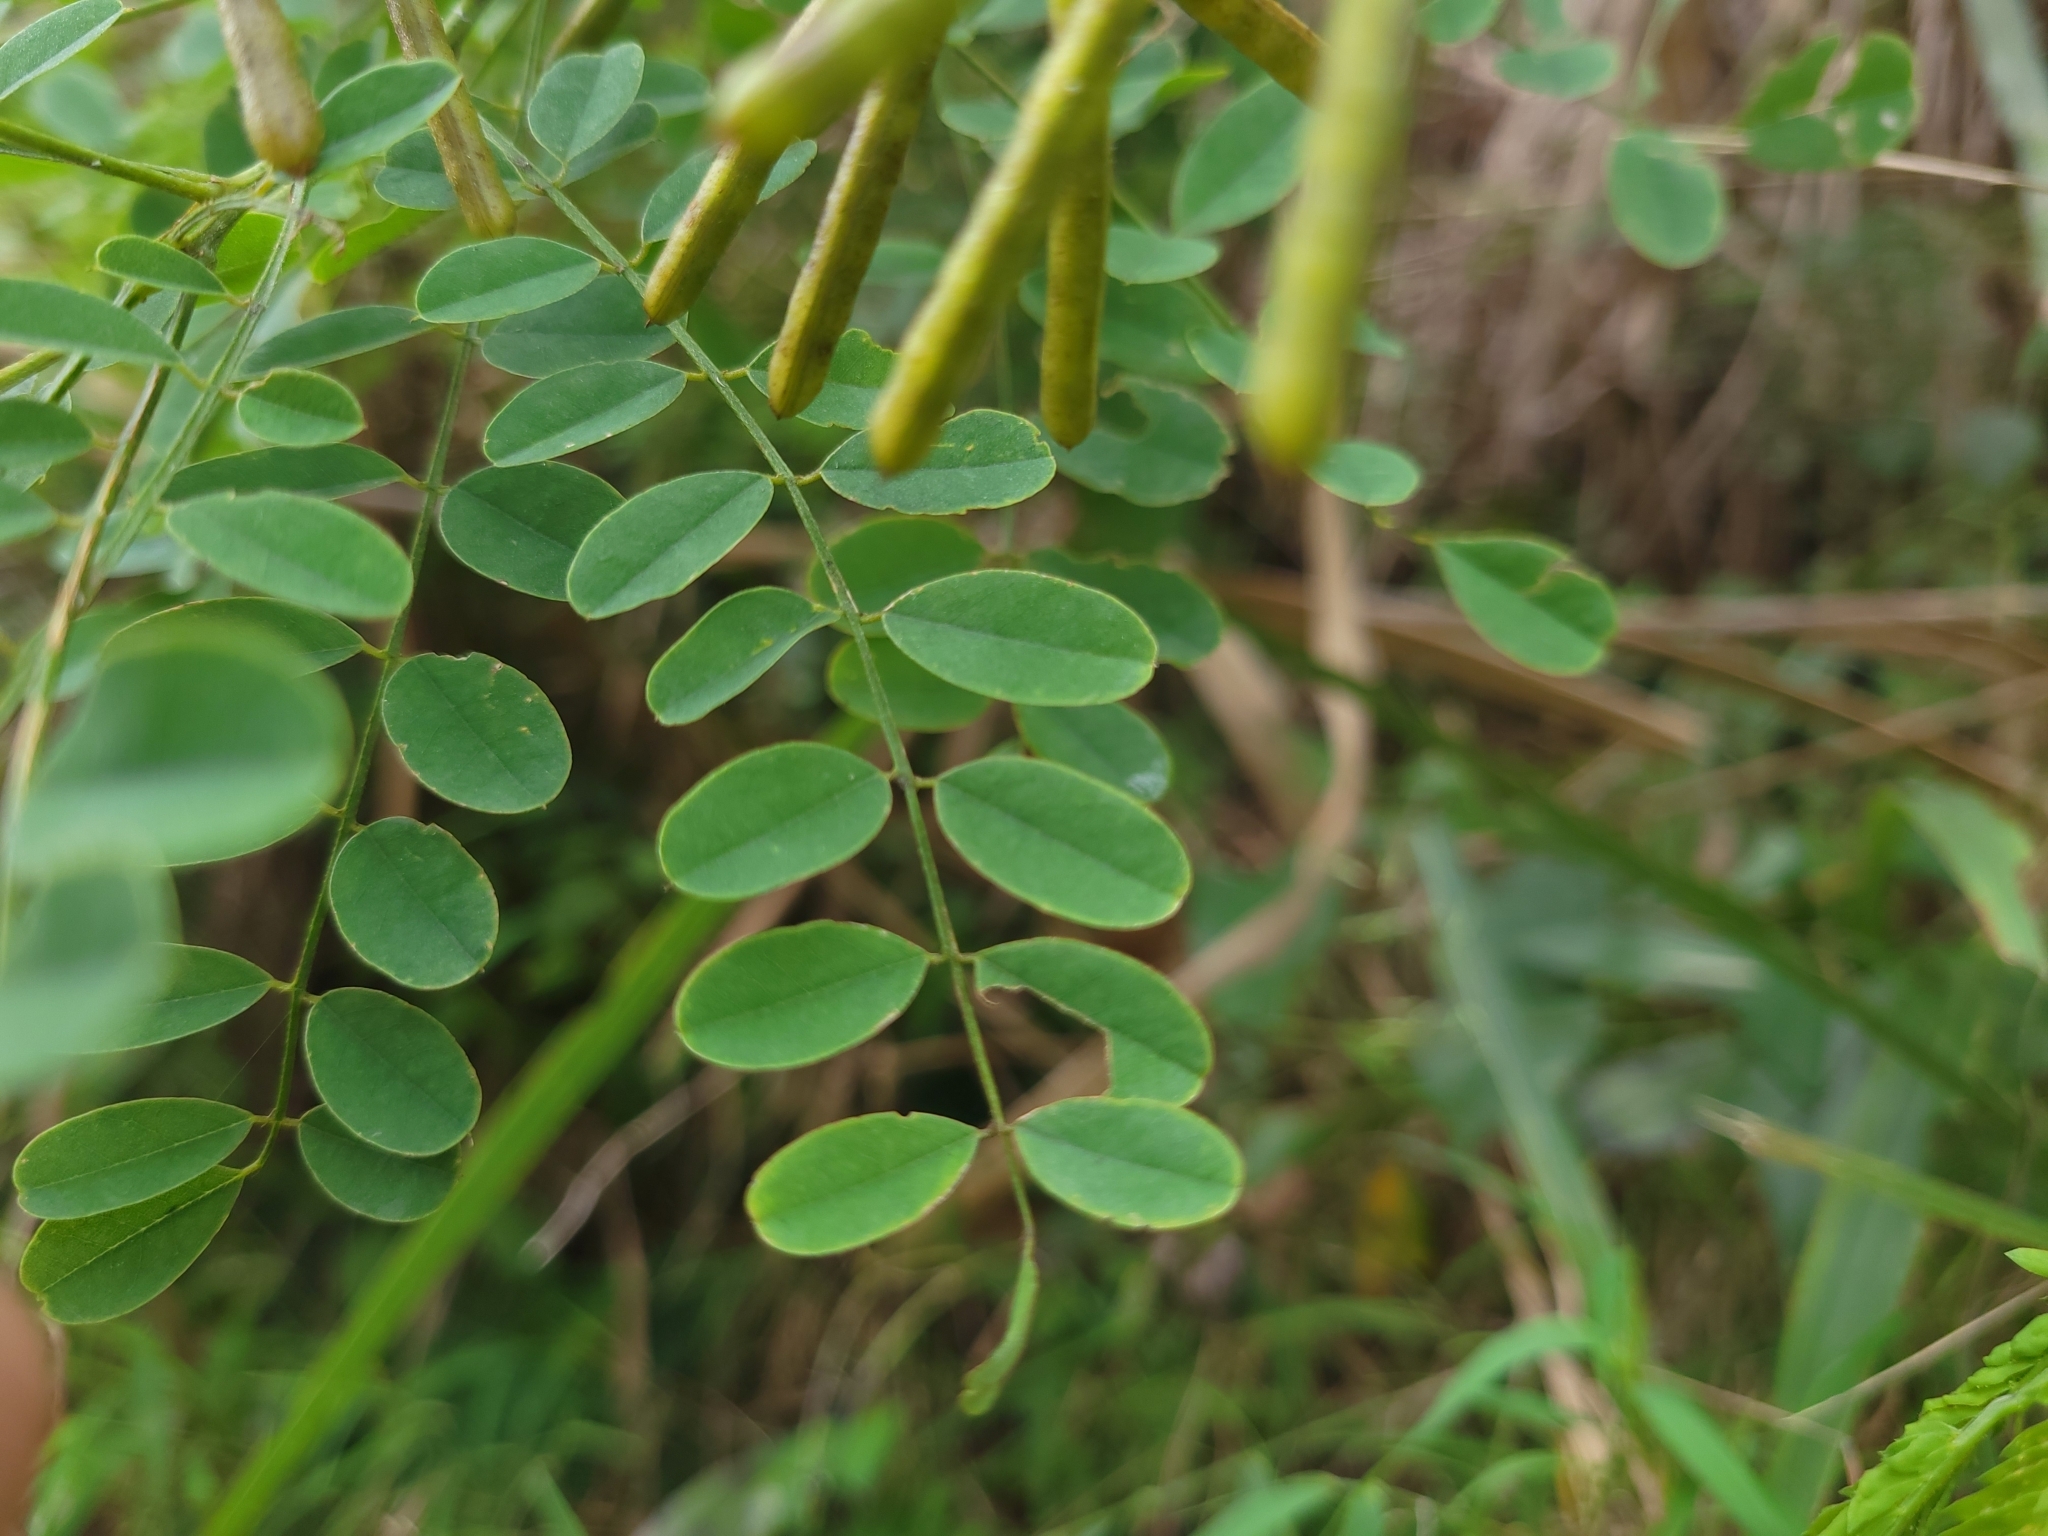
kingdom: Plantae
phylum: Tracheophyta
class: Magnoliopsida
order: Fabales
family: Fabaceae
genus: Indigofera
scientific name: Indigofera nigrescens
